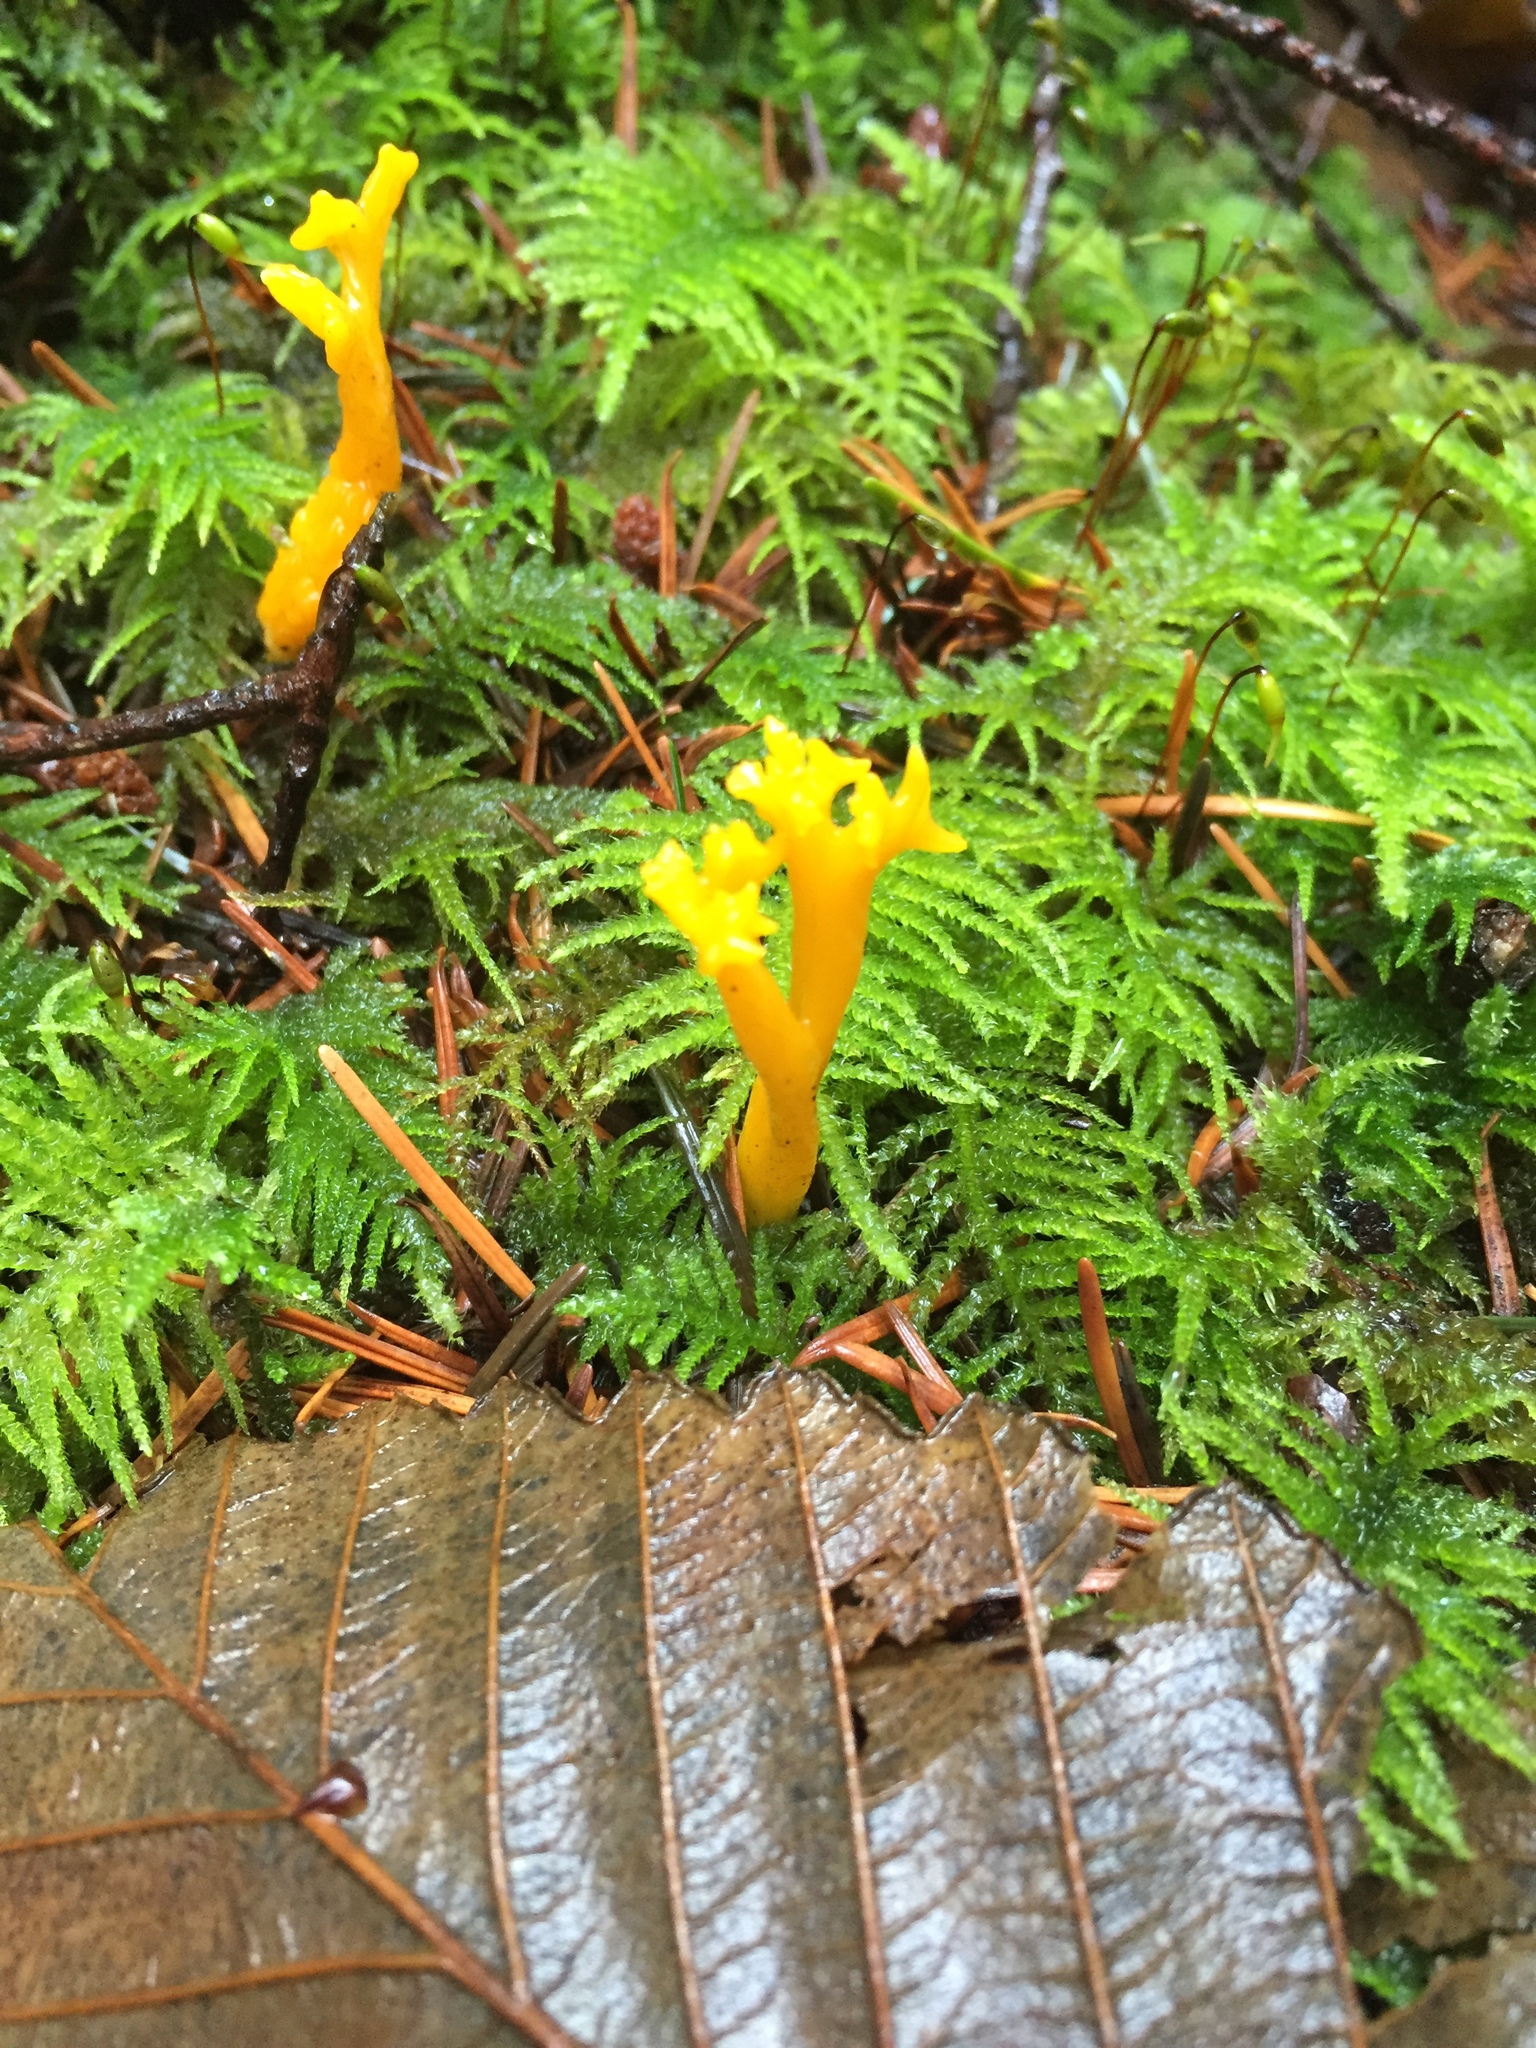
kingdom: Fungi
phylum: Basidiomycota
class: Dacrymycetes
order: Dacrymycetales
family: Dacrymycetaceae
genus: Calocera
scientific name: Calocera viscosa
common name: Yellow stagshorn
